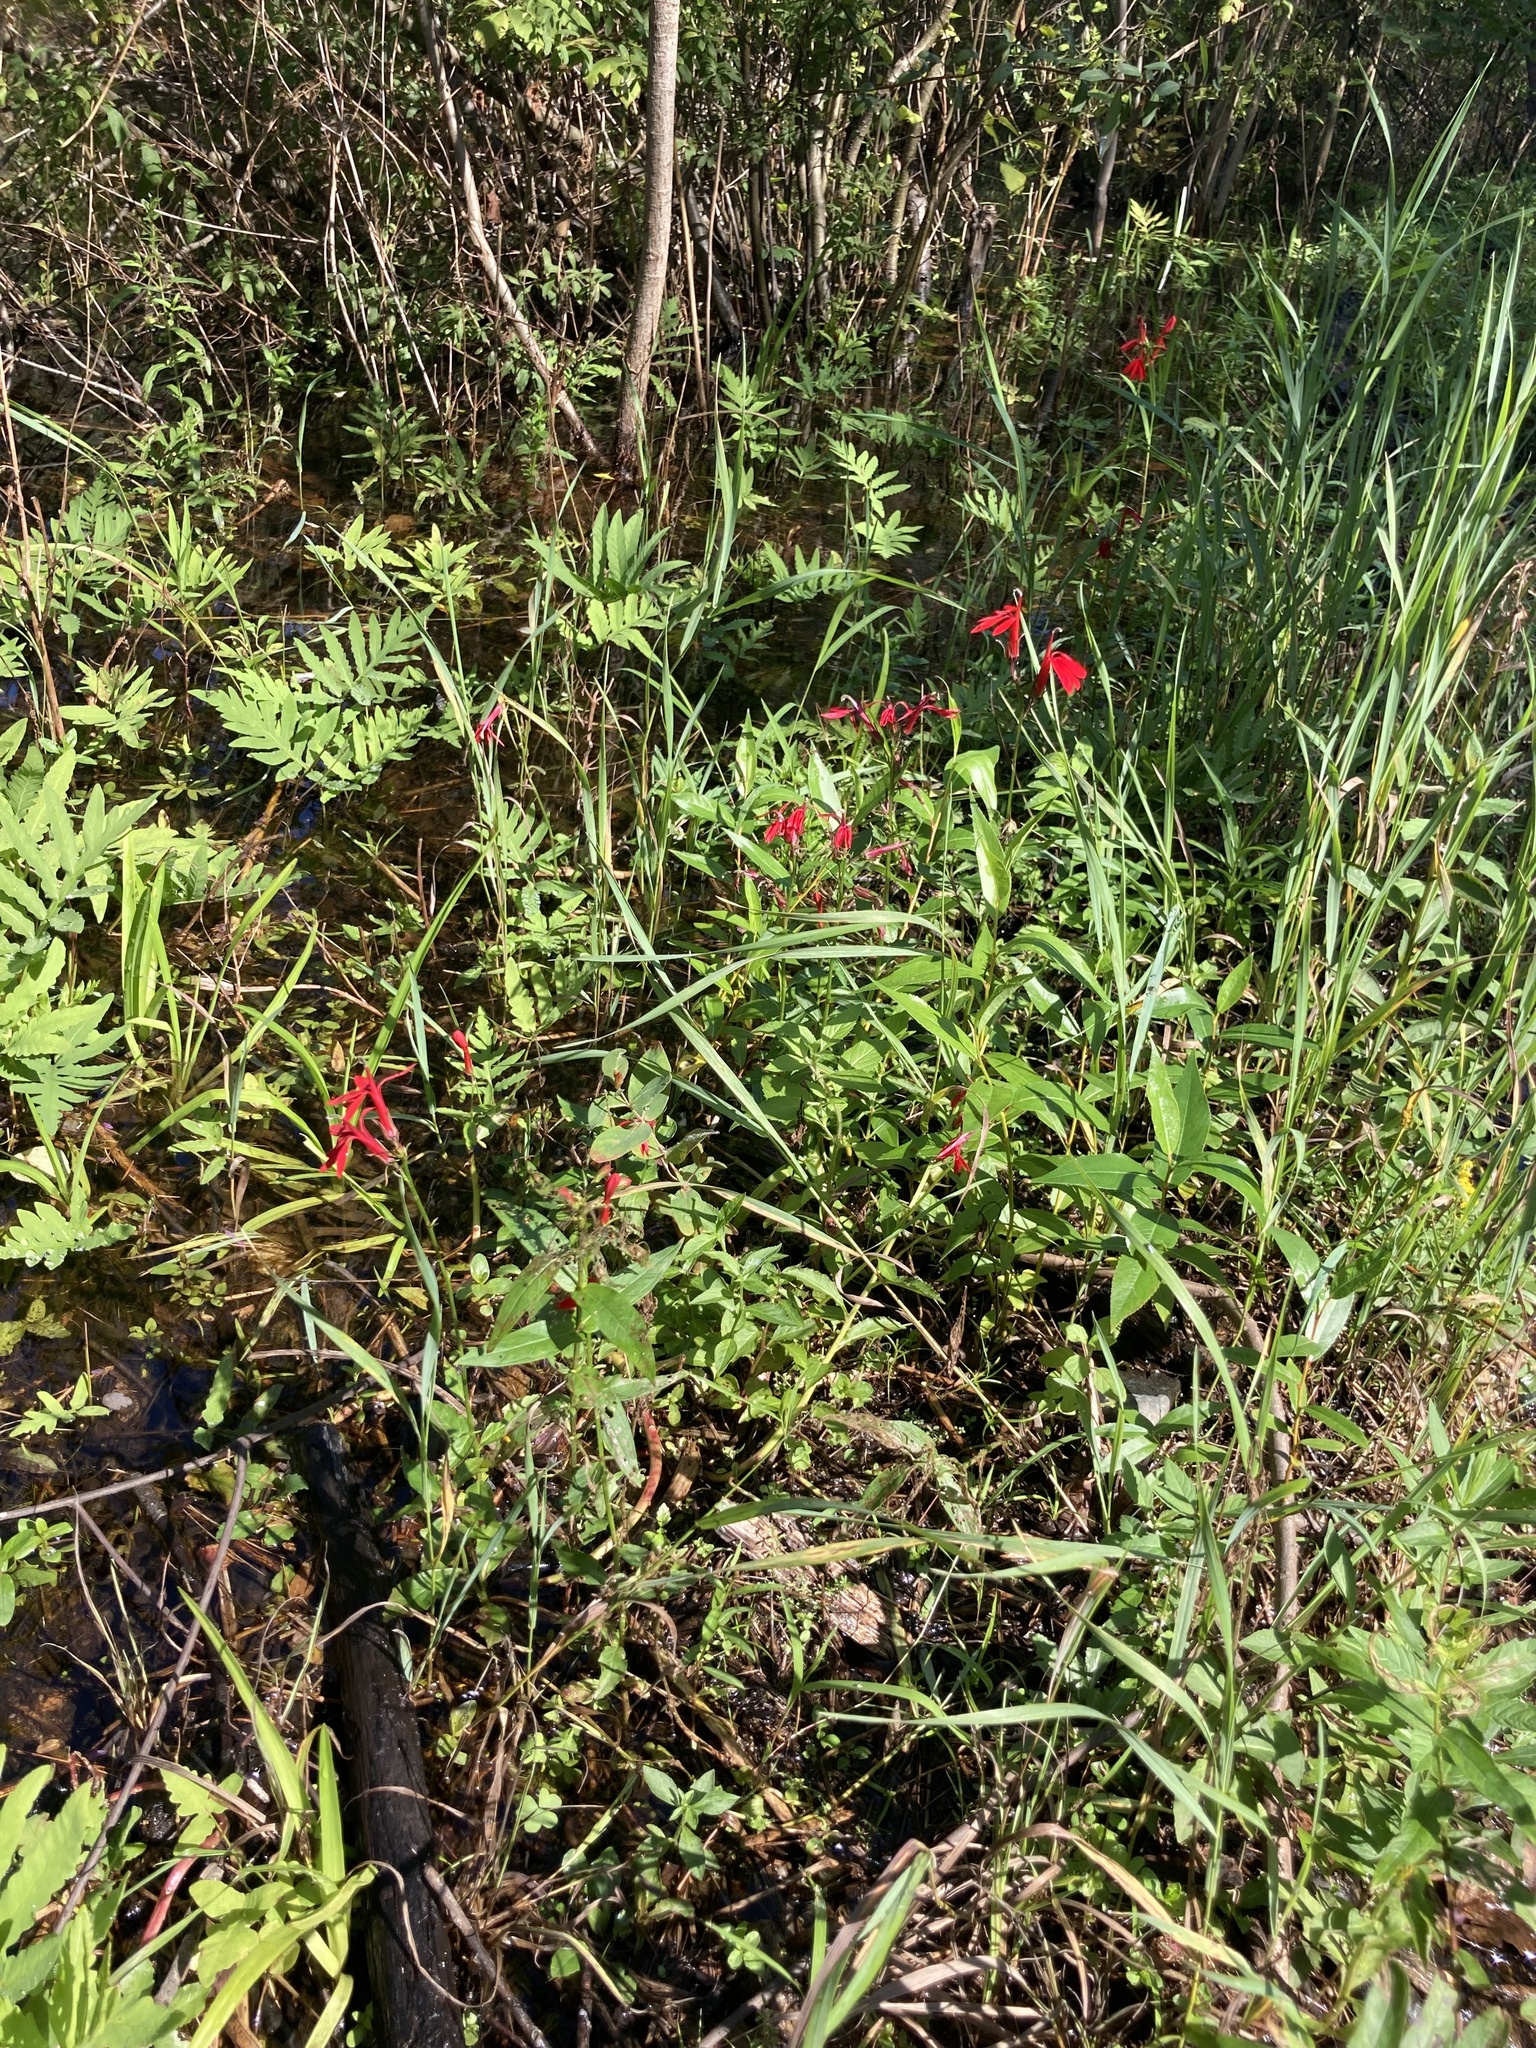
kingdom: Plantae
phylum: Tracheophyta
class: Magnoliopsida
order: Asterales
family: Campanulaceae
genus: Lobelia
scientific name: Lobelia cardinalis
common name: Cardinal flower
